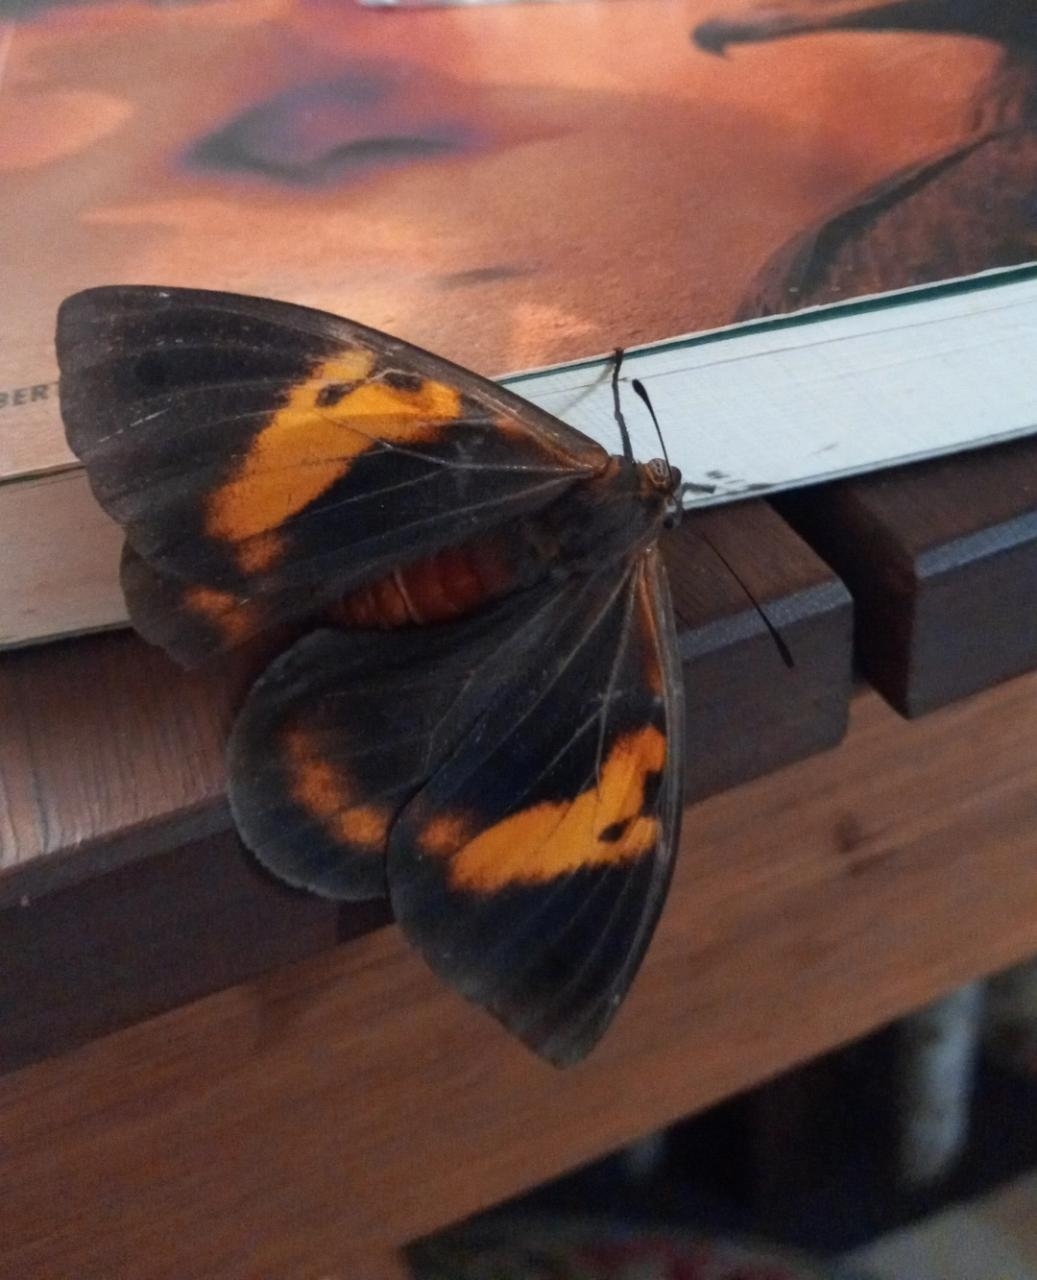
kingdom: Animalia
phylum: Arthropoda
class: Insecta
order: Lepidoptera
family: Nymphalidae
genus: Brassolis
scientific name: Brassolis astyra
